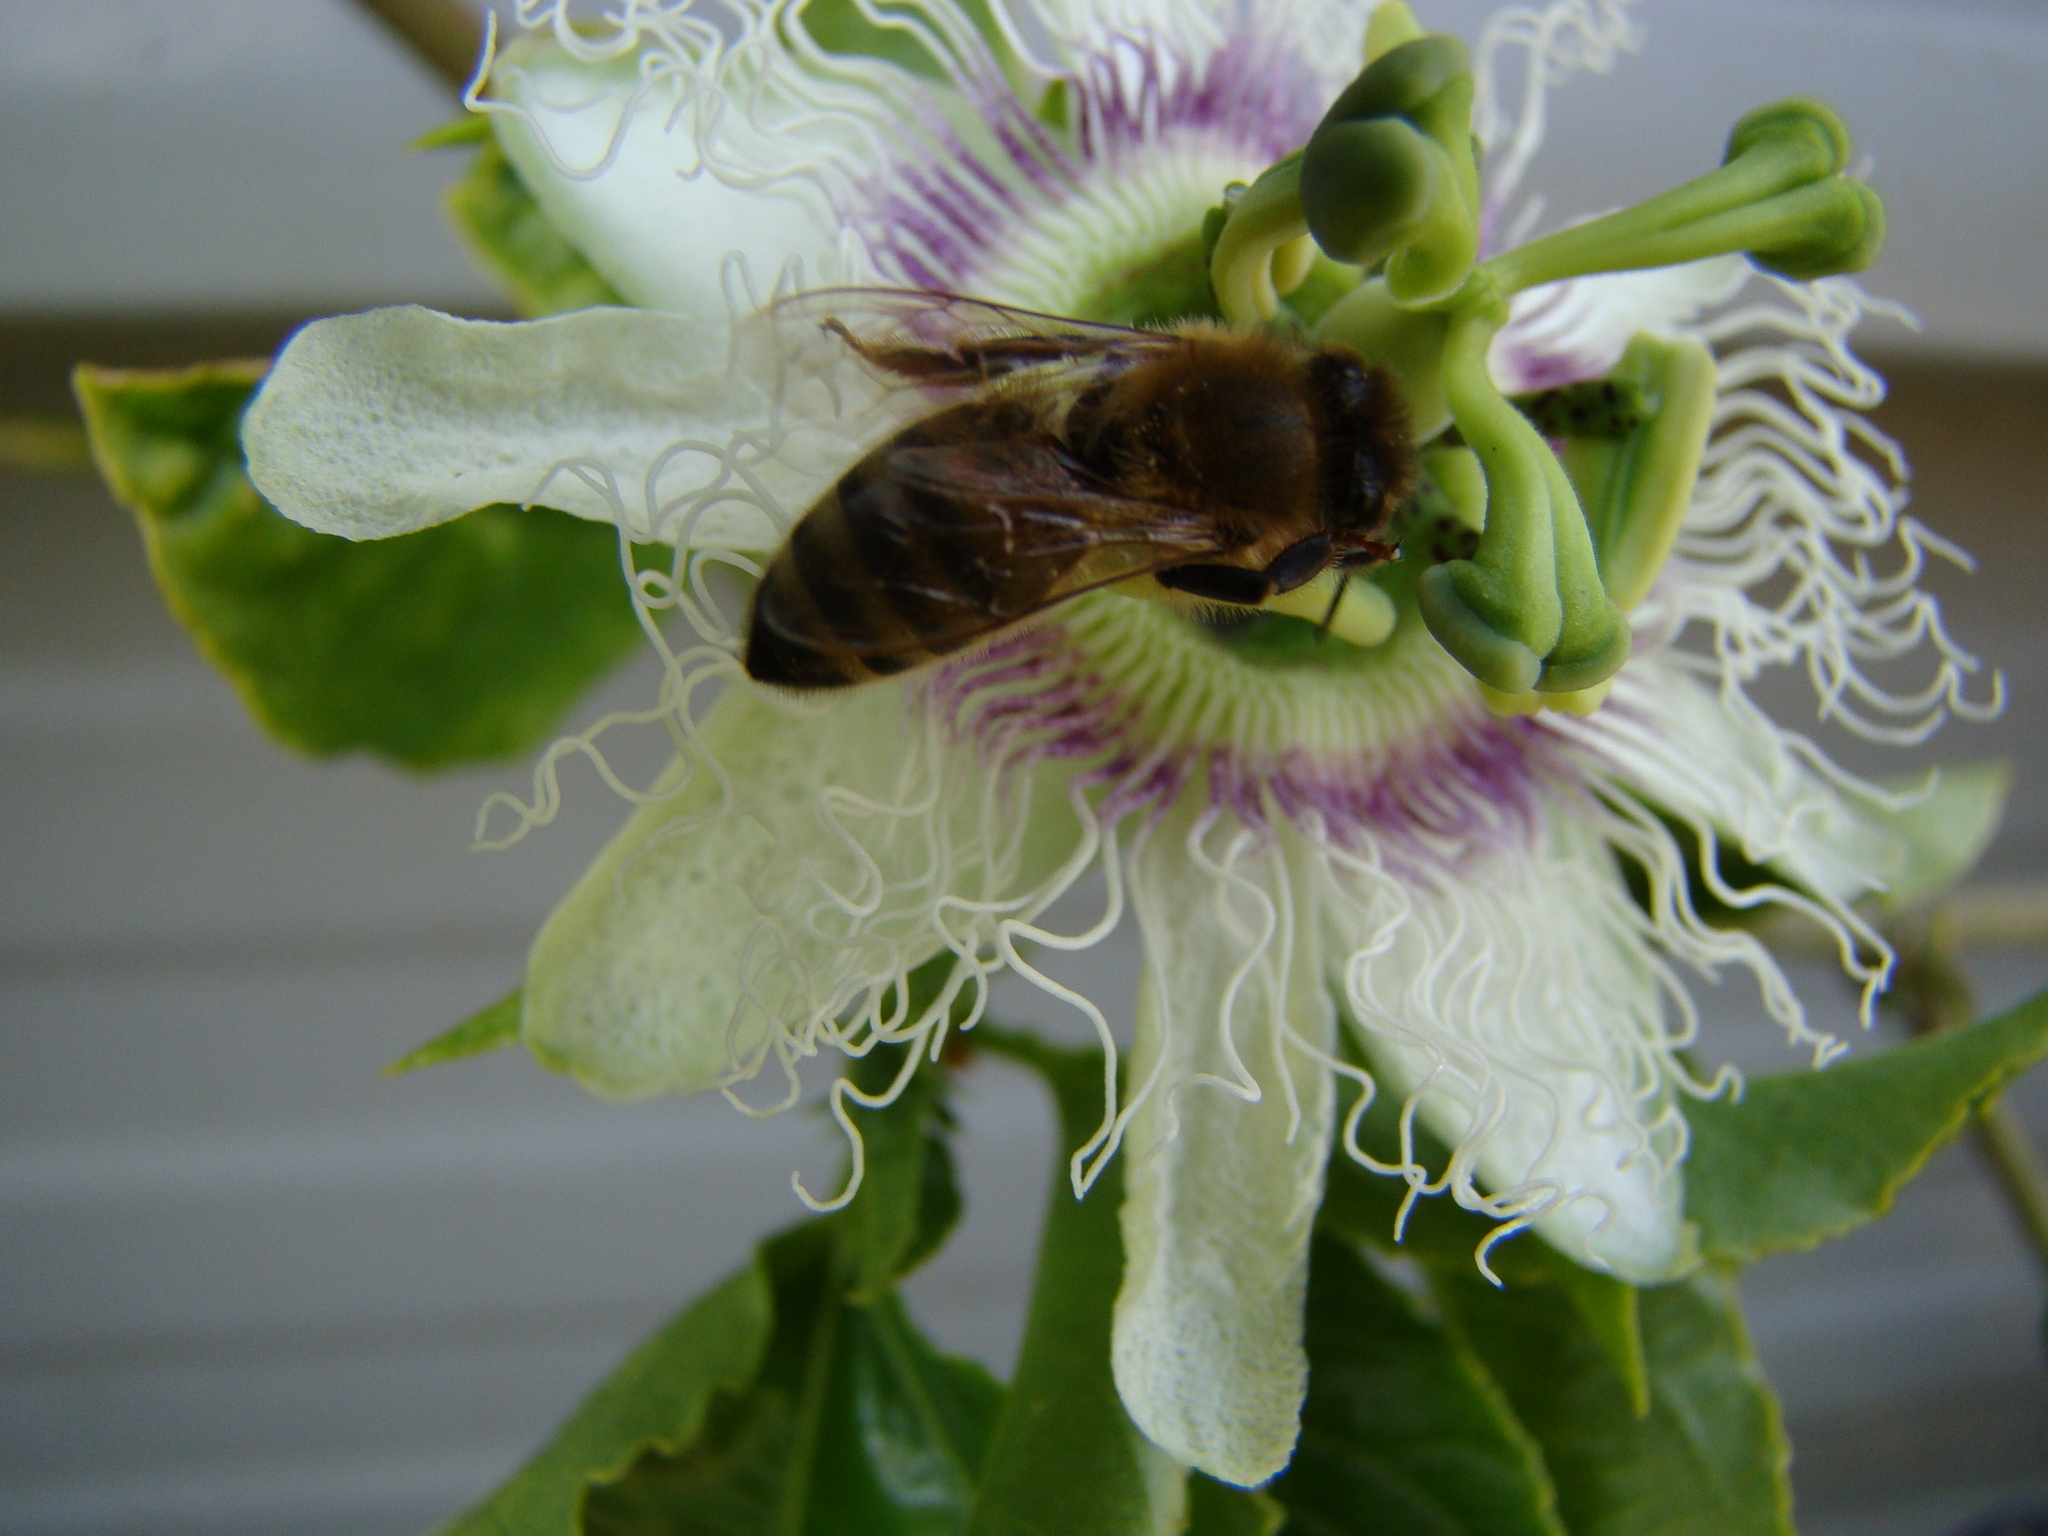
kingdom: Animalia
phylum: Arthropoda
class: Insecta
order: Hymenoptera
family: Apidae
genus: Apis
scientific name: Apis mellifera
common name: Honey bee
